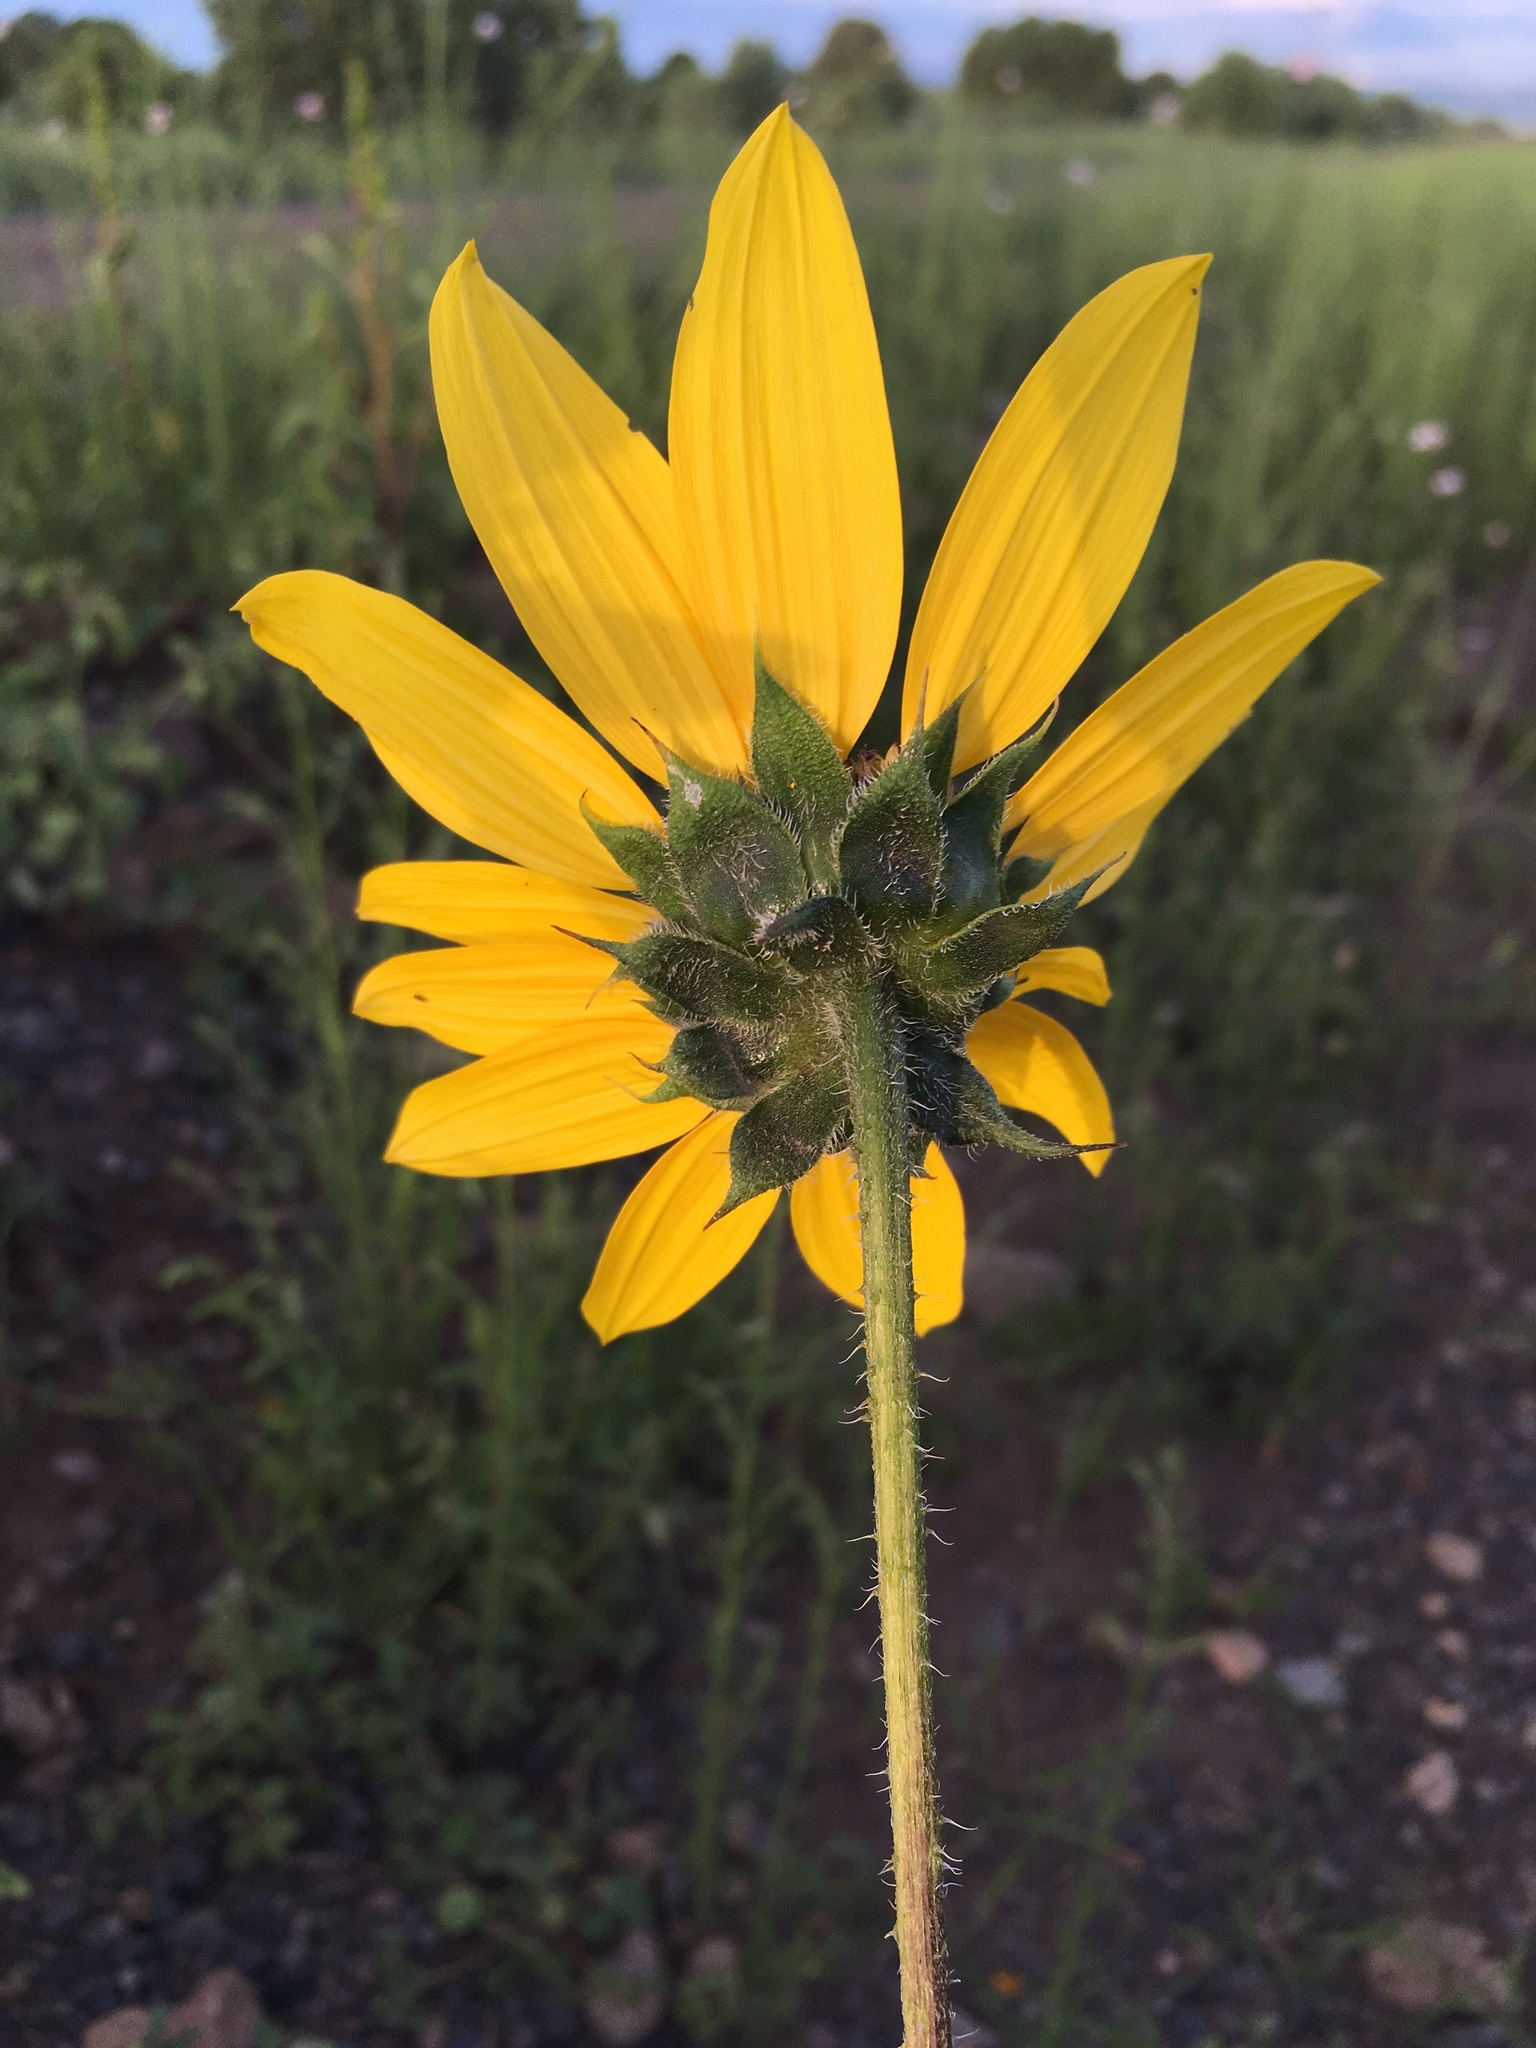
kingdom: Plantae
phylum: Tracheophyta
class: Magnoliopsida
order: Asterales
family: Asteraceae
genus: Helianthus
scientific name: Helianthus annuus
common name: Sunflower
